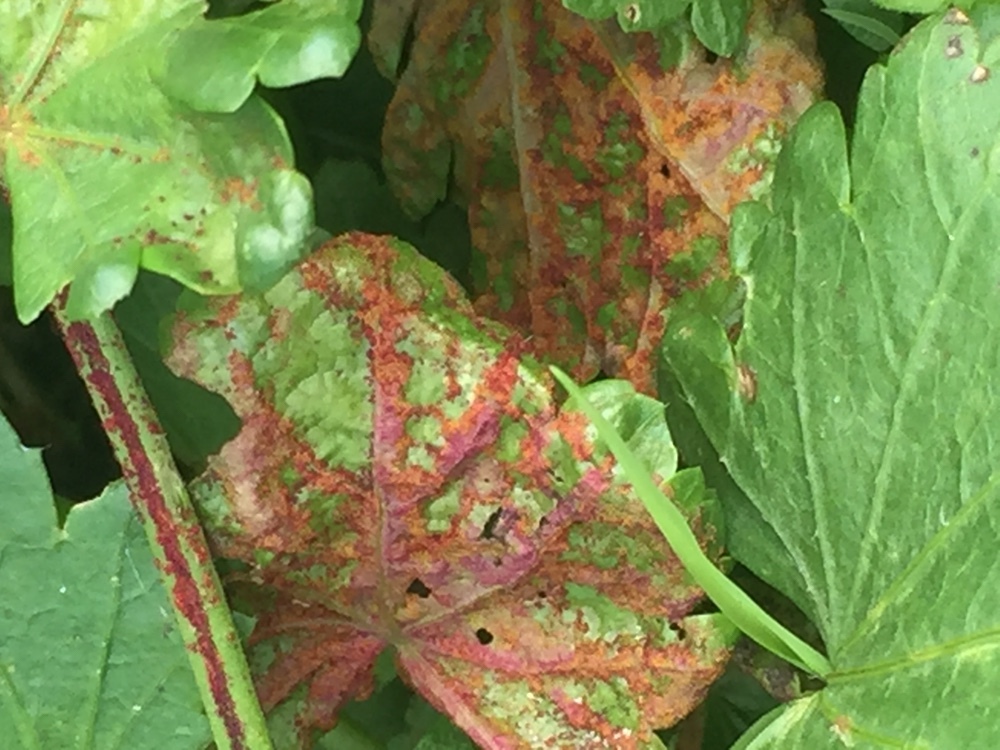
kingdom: Fungi
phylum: Chytridiomycota
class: Chytridiomycetes
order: Chytridiales
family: Synchytriaceae
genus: Synchytrium
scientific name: Synchytrium australe
